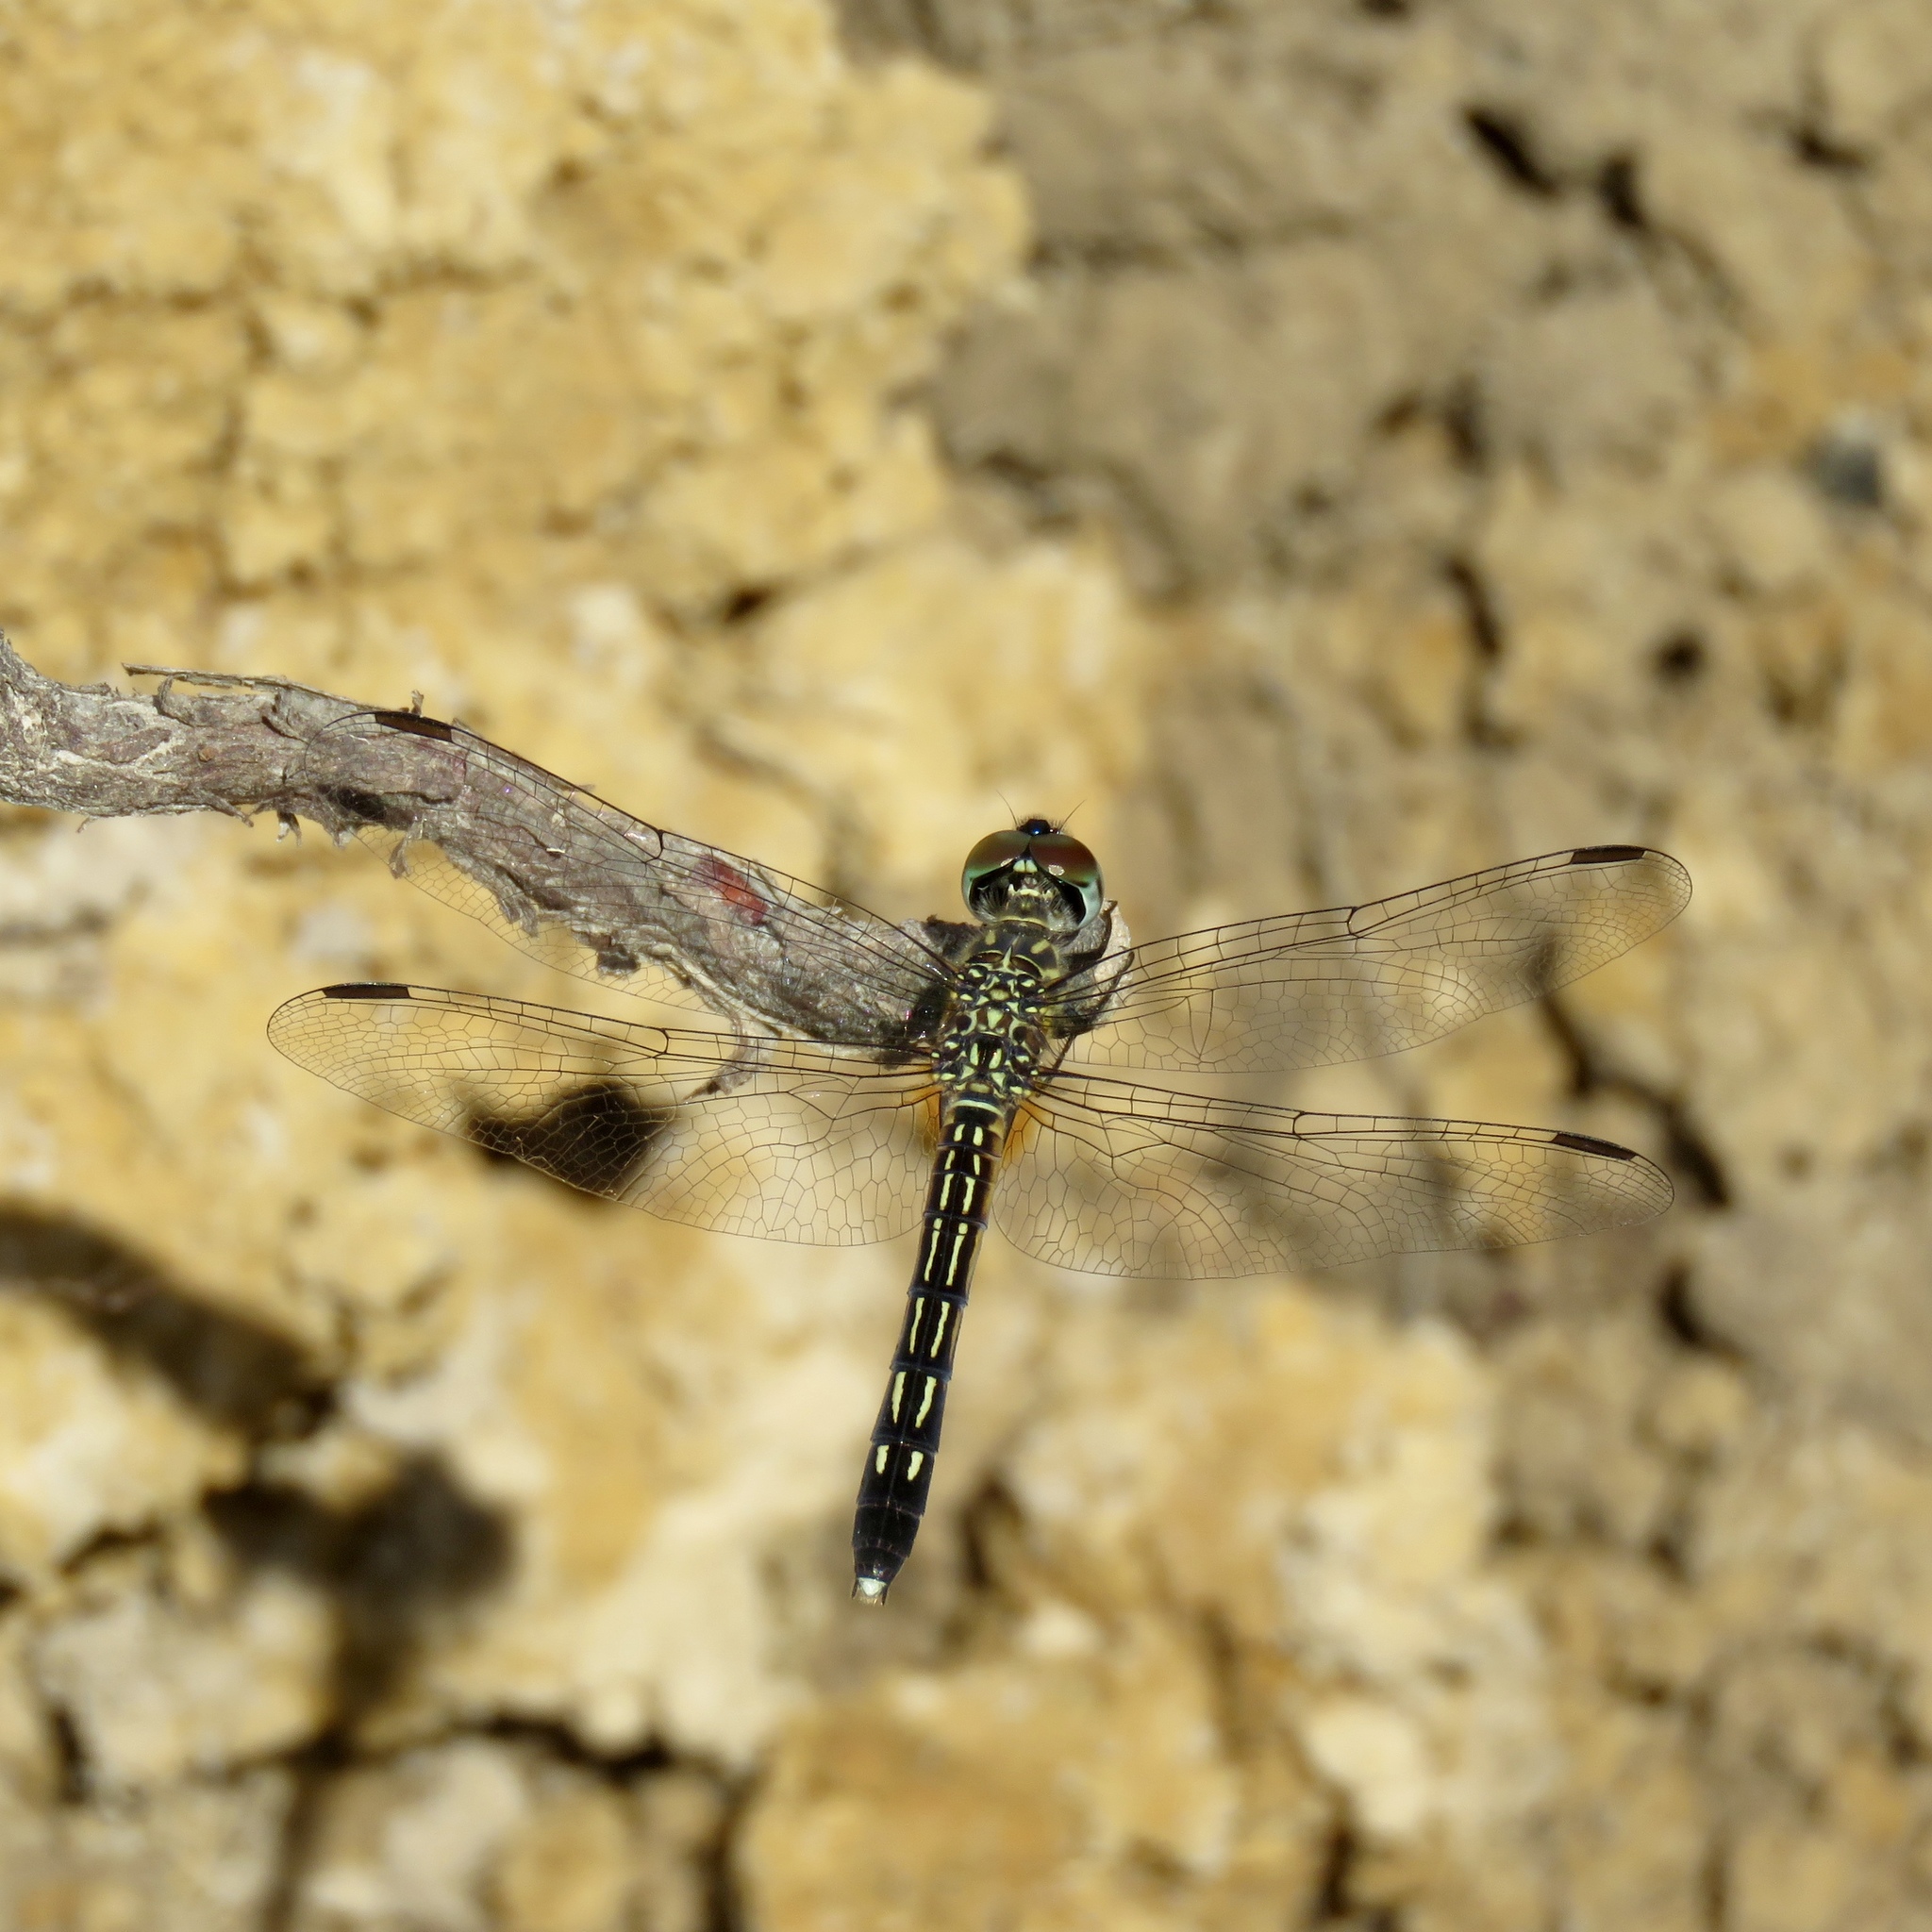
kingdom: Animalia
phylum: Arthropoda
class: Insecta
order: Odonata
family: Libellulidae
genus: Pachydiplax
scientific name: Pachydiplax longipennis
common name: Blue dasher
